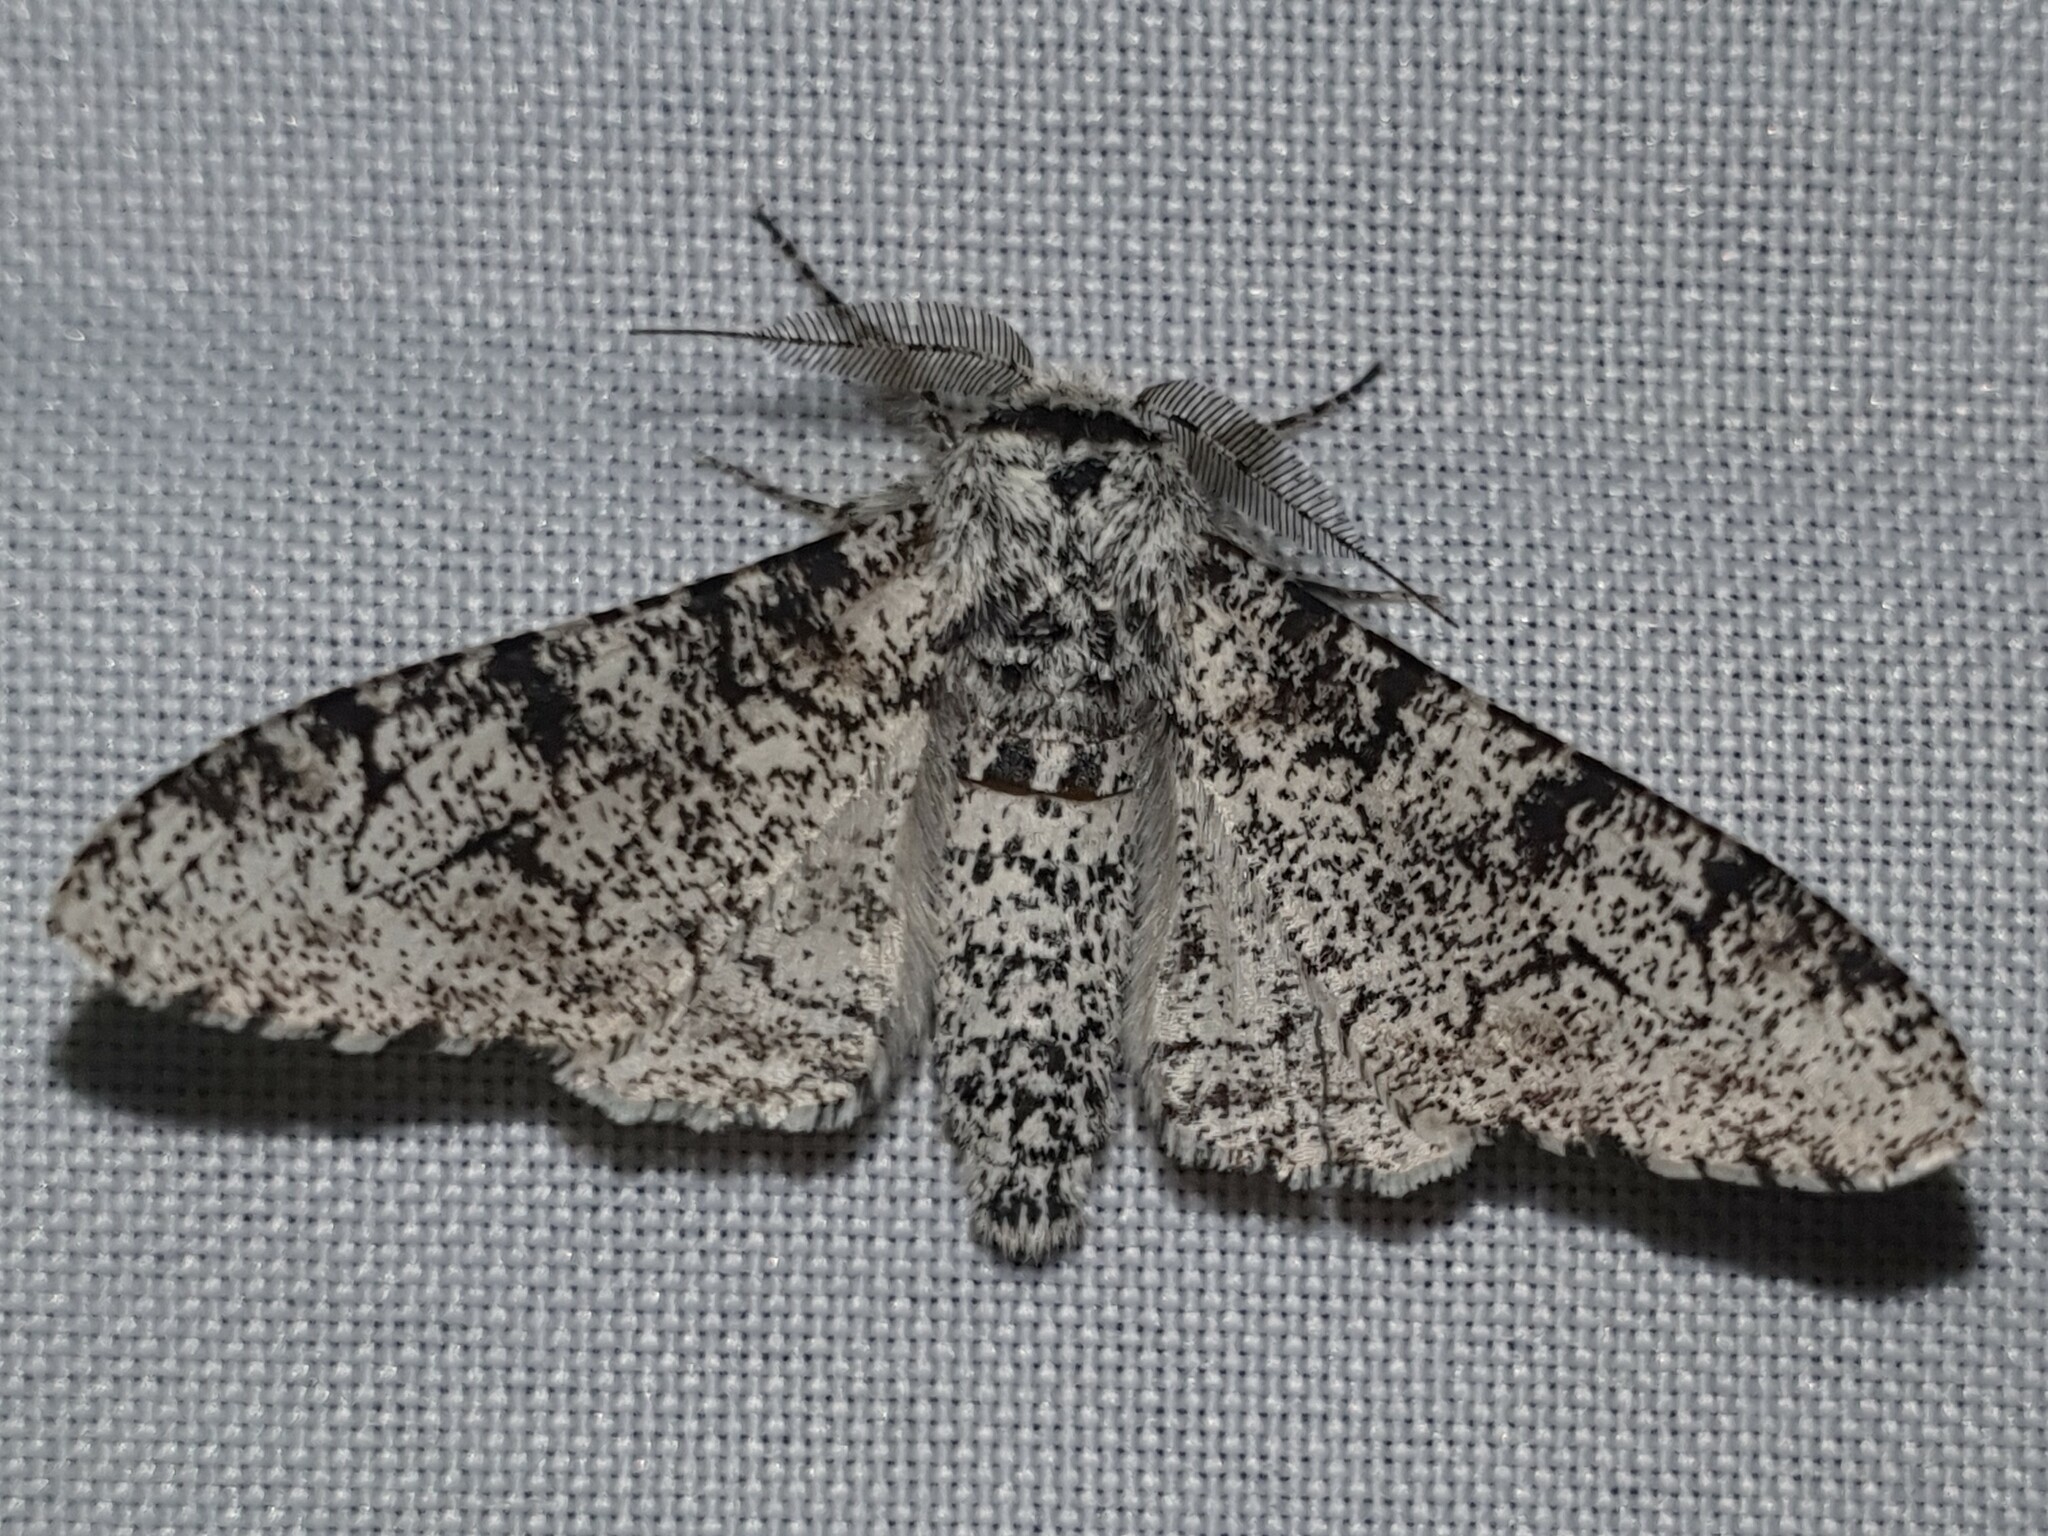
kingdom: Animalia
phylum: Arthropoda
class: Insecta
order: Lepidoptera
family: Geometridae
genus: Biston
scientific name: Biston betularia
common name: Peppered moth
